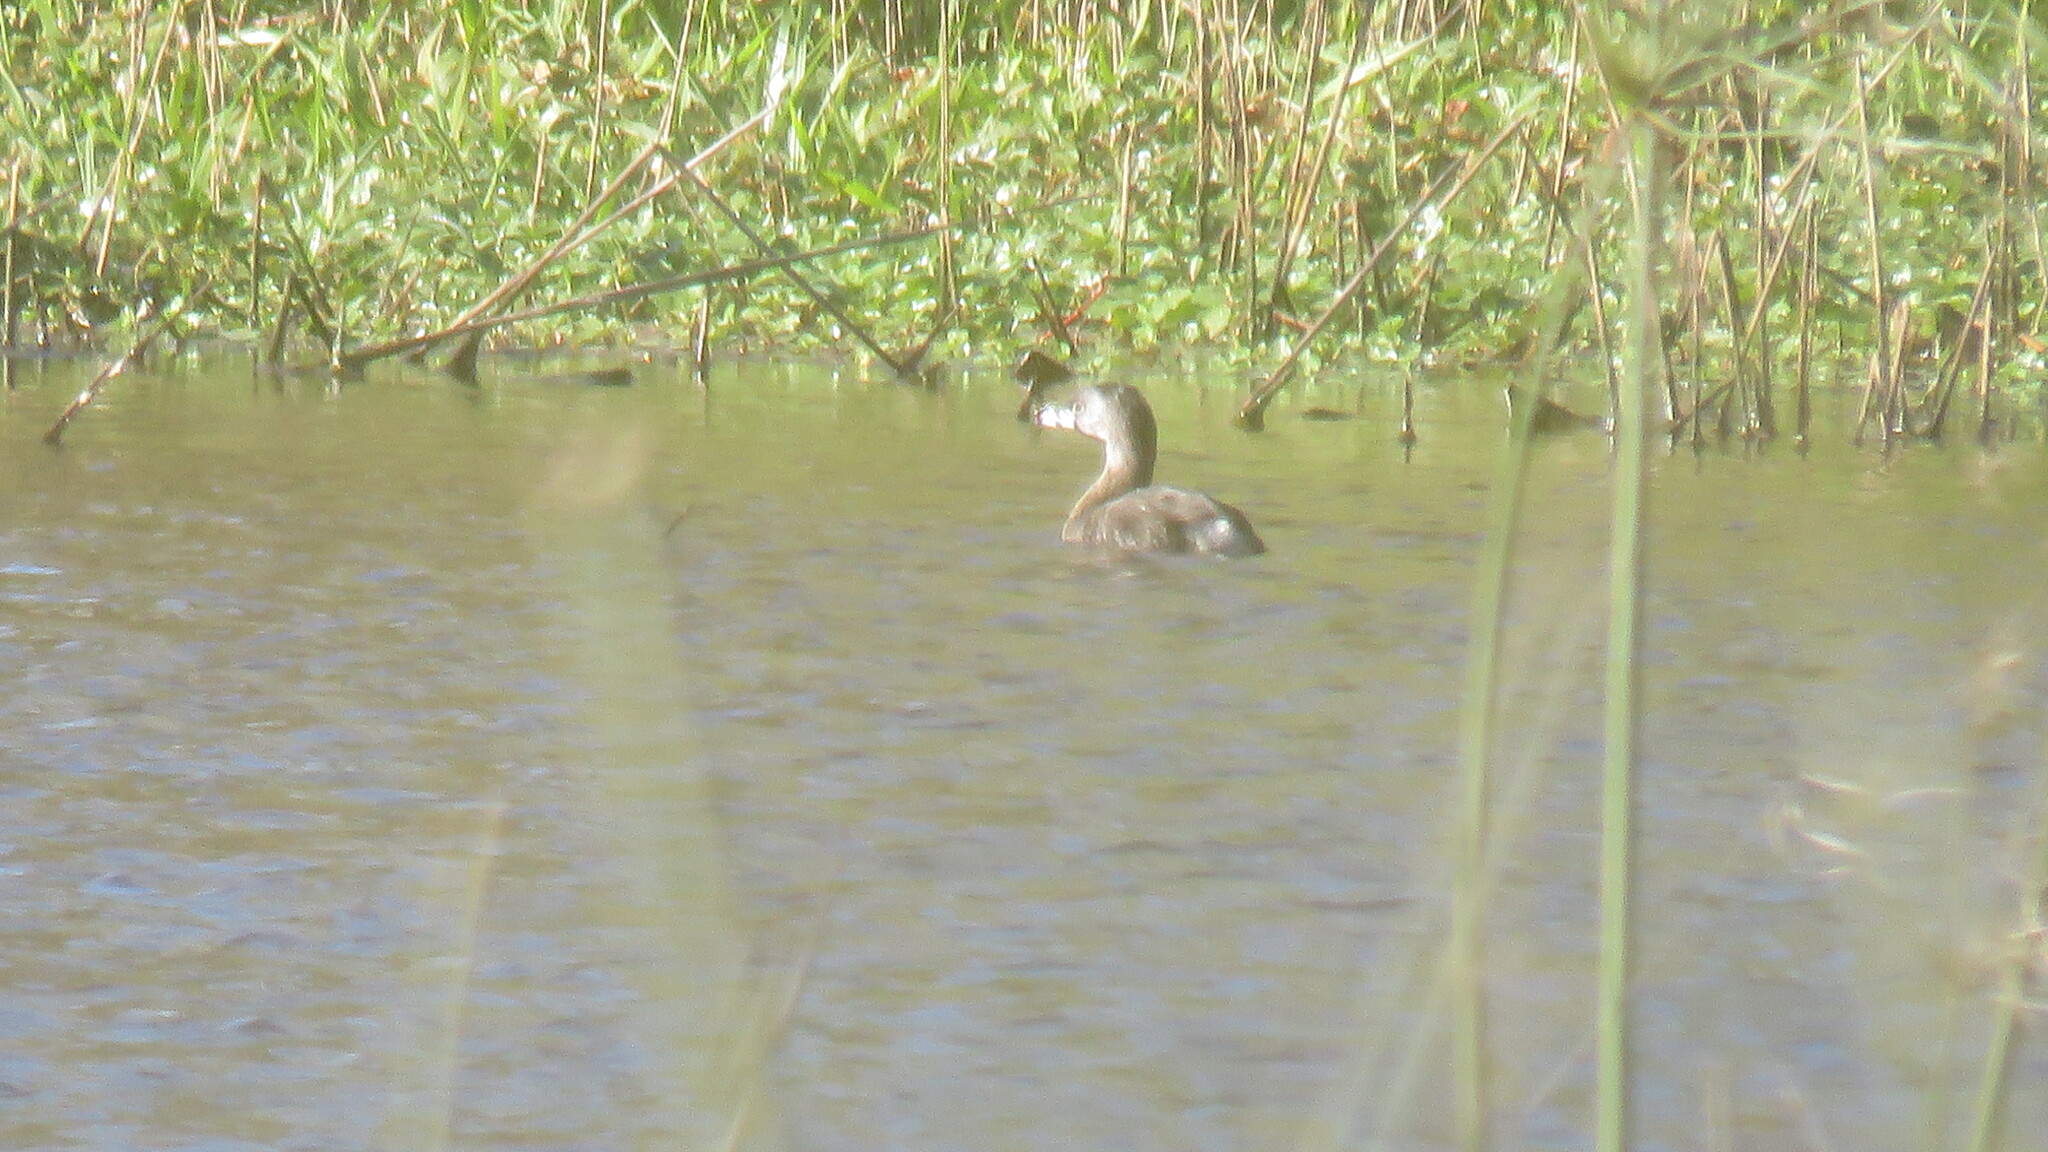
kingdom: Animalia
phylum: Chordata
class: Aves
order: Podicipediformes
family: Podicipedidae
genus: Podilymbus
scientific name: Podilymbus podiceps
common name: Pied-billed grebe
